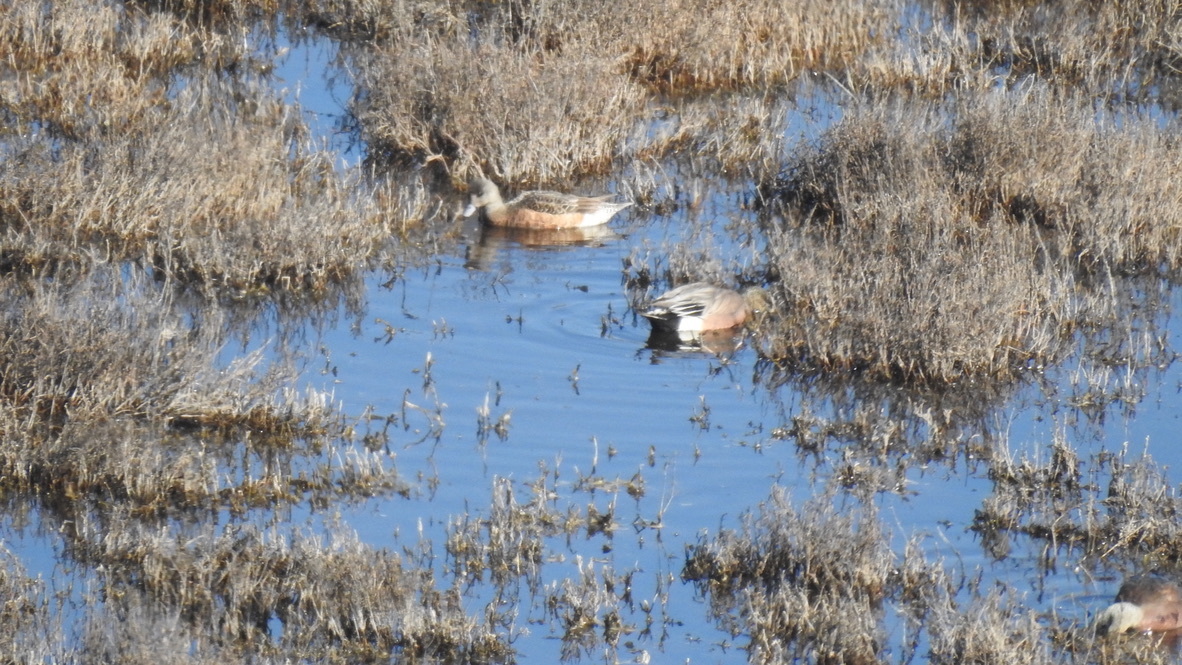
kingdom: Animalia
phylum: Chordata
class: Aves
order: Anseriformes
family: Anatidae
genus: Mareca
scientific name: Mareca americana
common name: American wigeon
